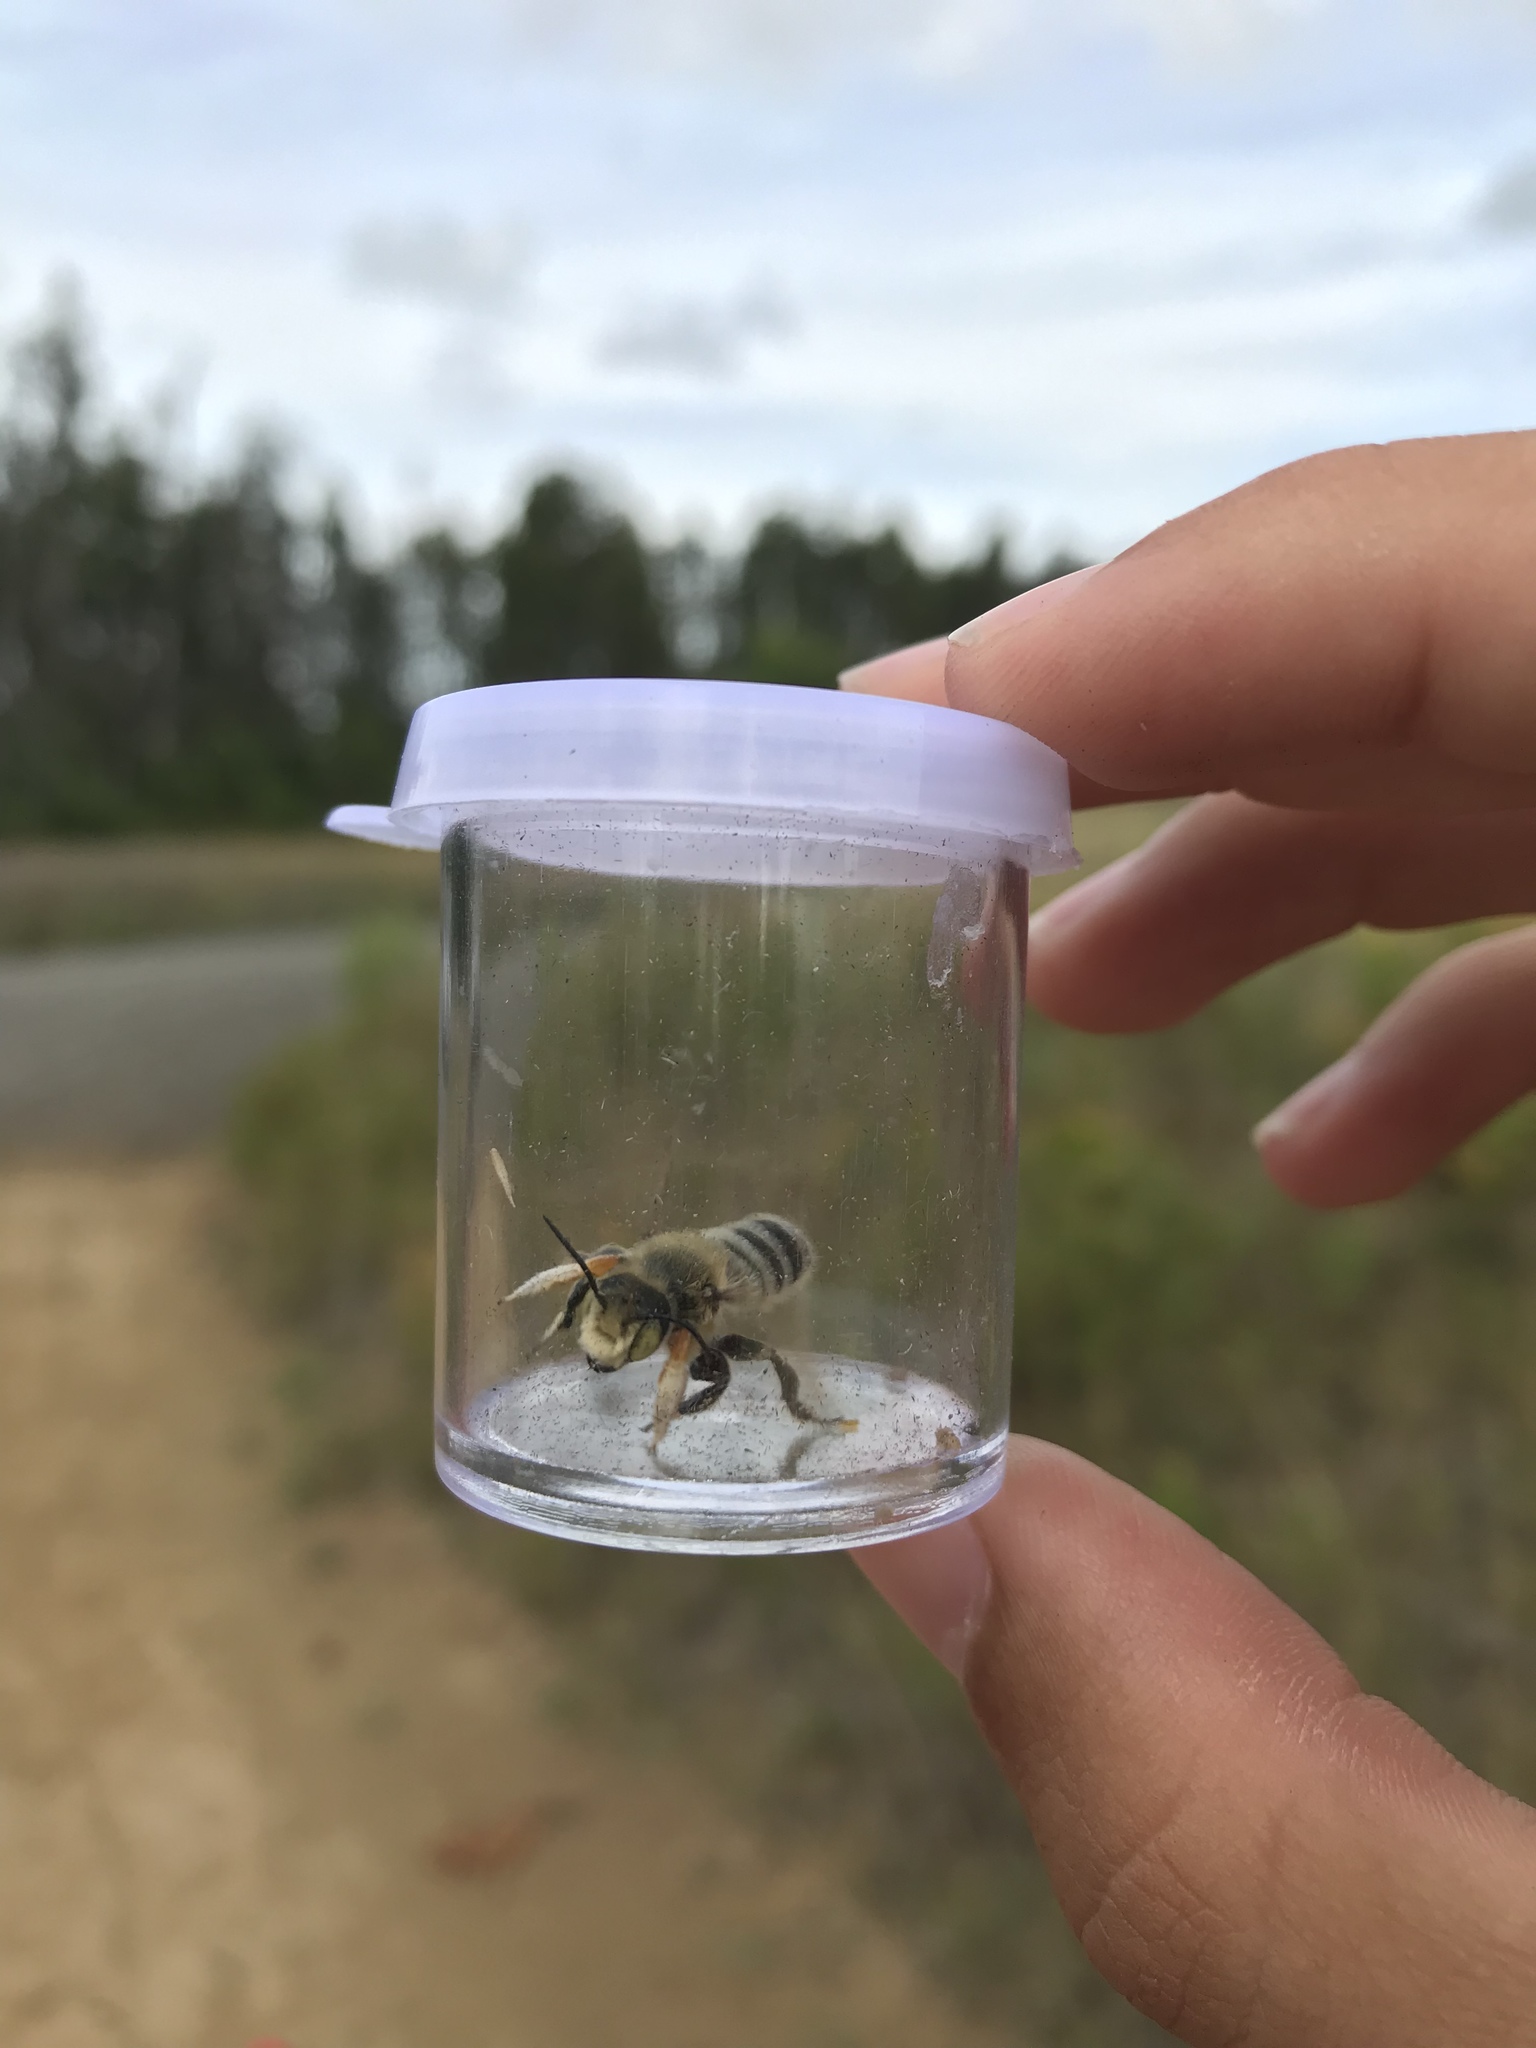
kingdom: Animalia
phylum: Arthropoda
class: Insecta
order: Hymenoptera
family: Megachilidae
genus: Megachile
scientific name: Megachile latimanus
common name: Leafcutting bee
